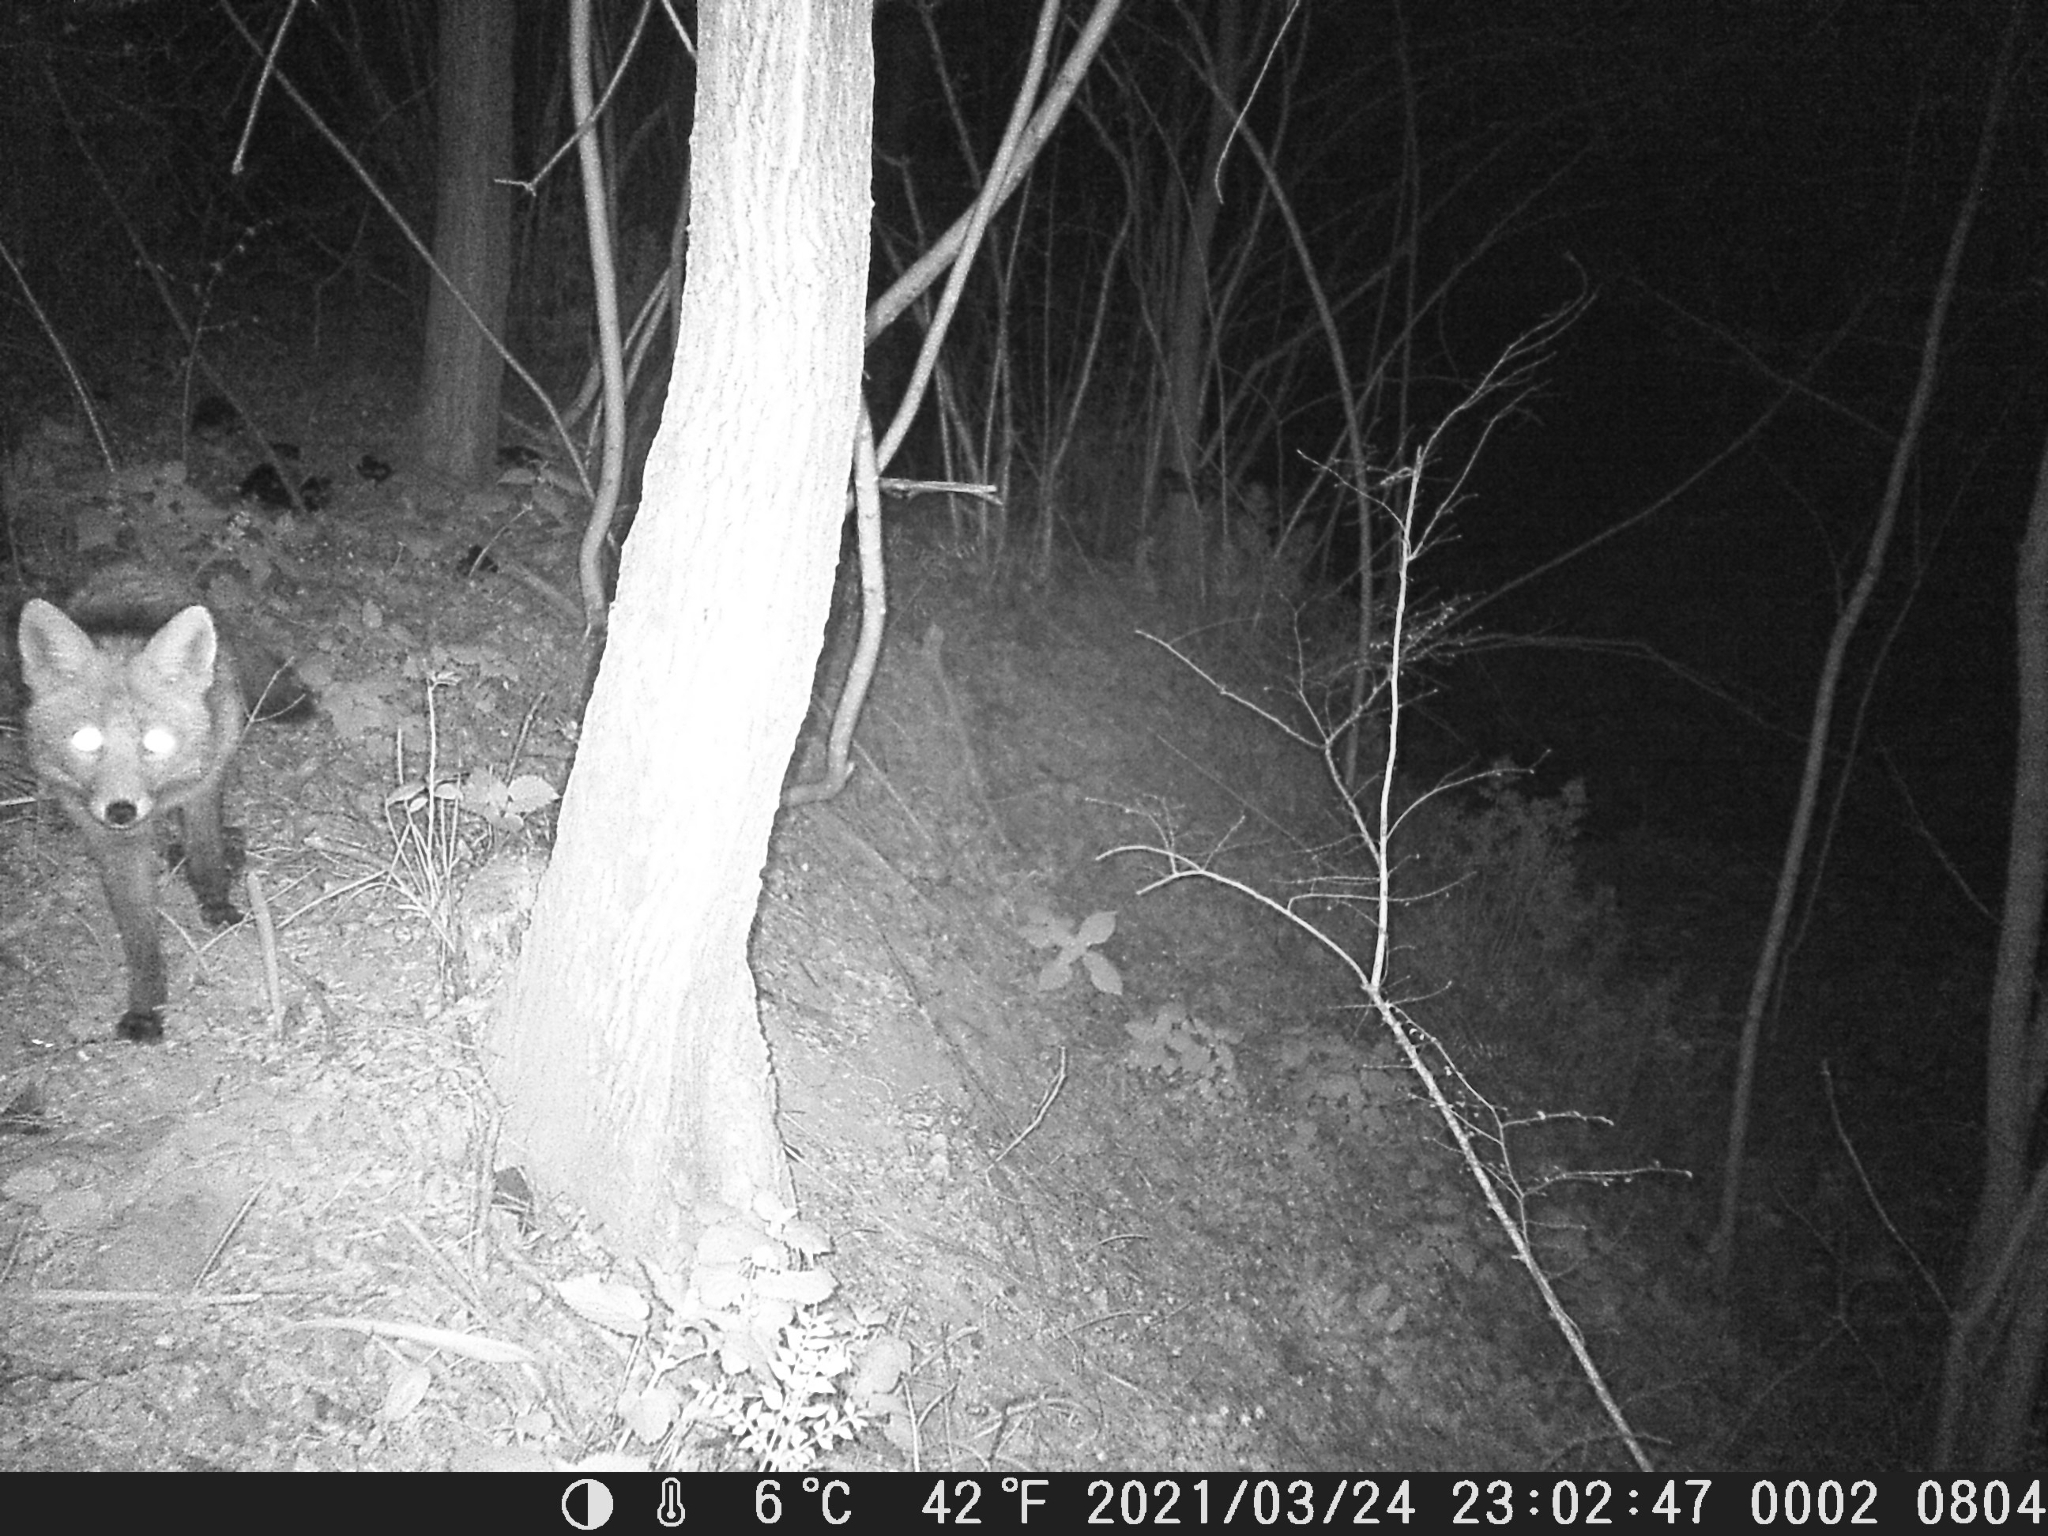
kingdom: Animalia
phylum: Chordata
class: Mammalia
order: Carnivora
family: Canidae
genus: Vulpes
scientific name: Vulpes vulpes
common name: Red fox
